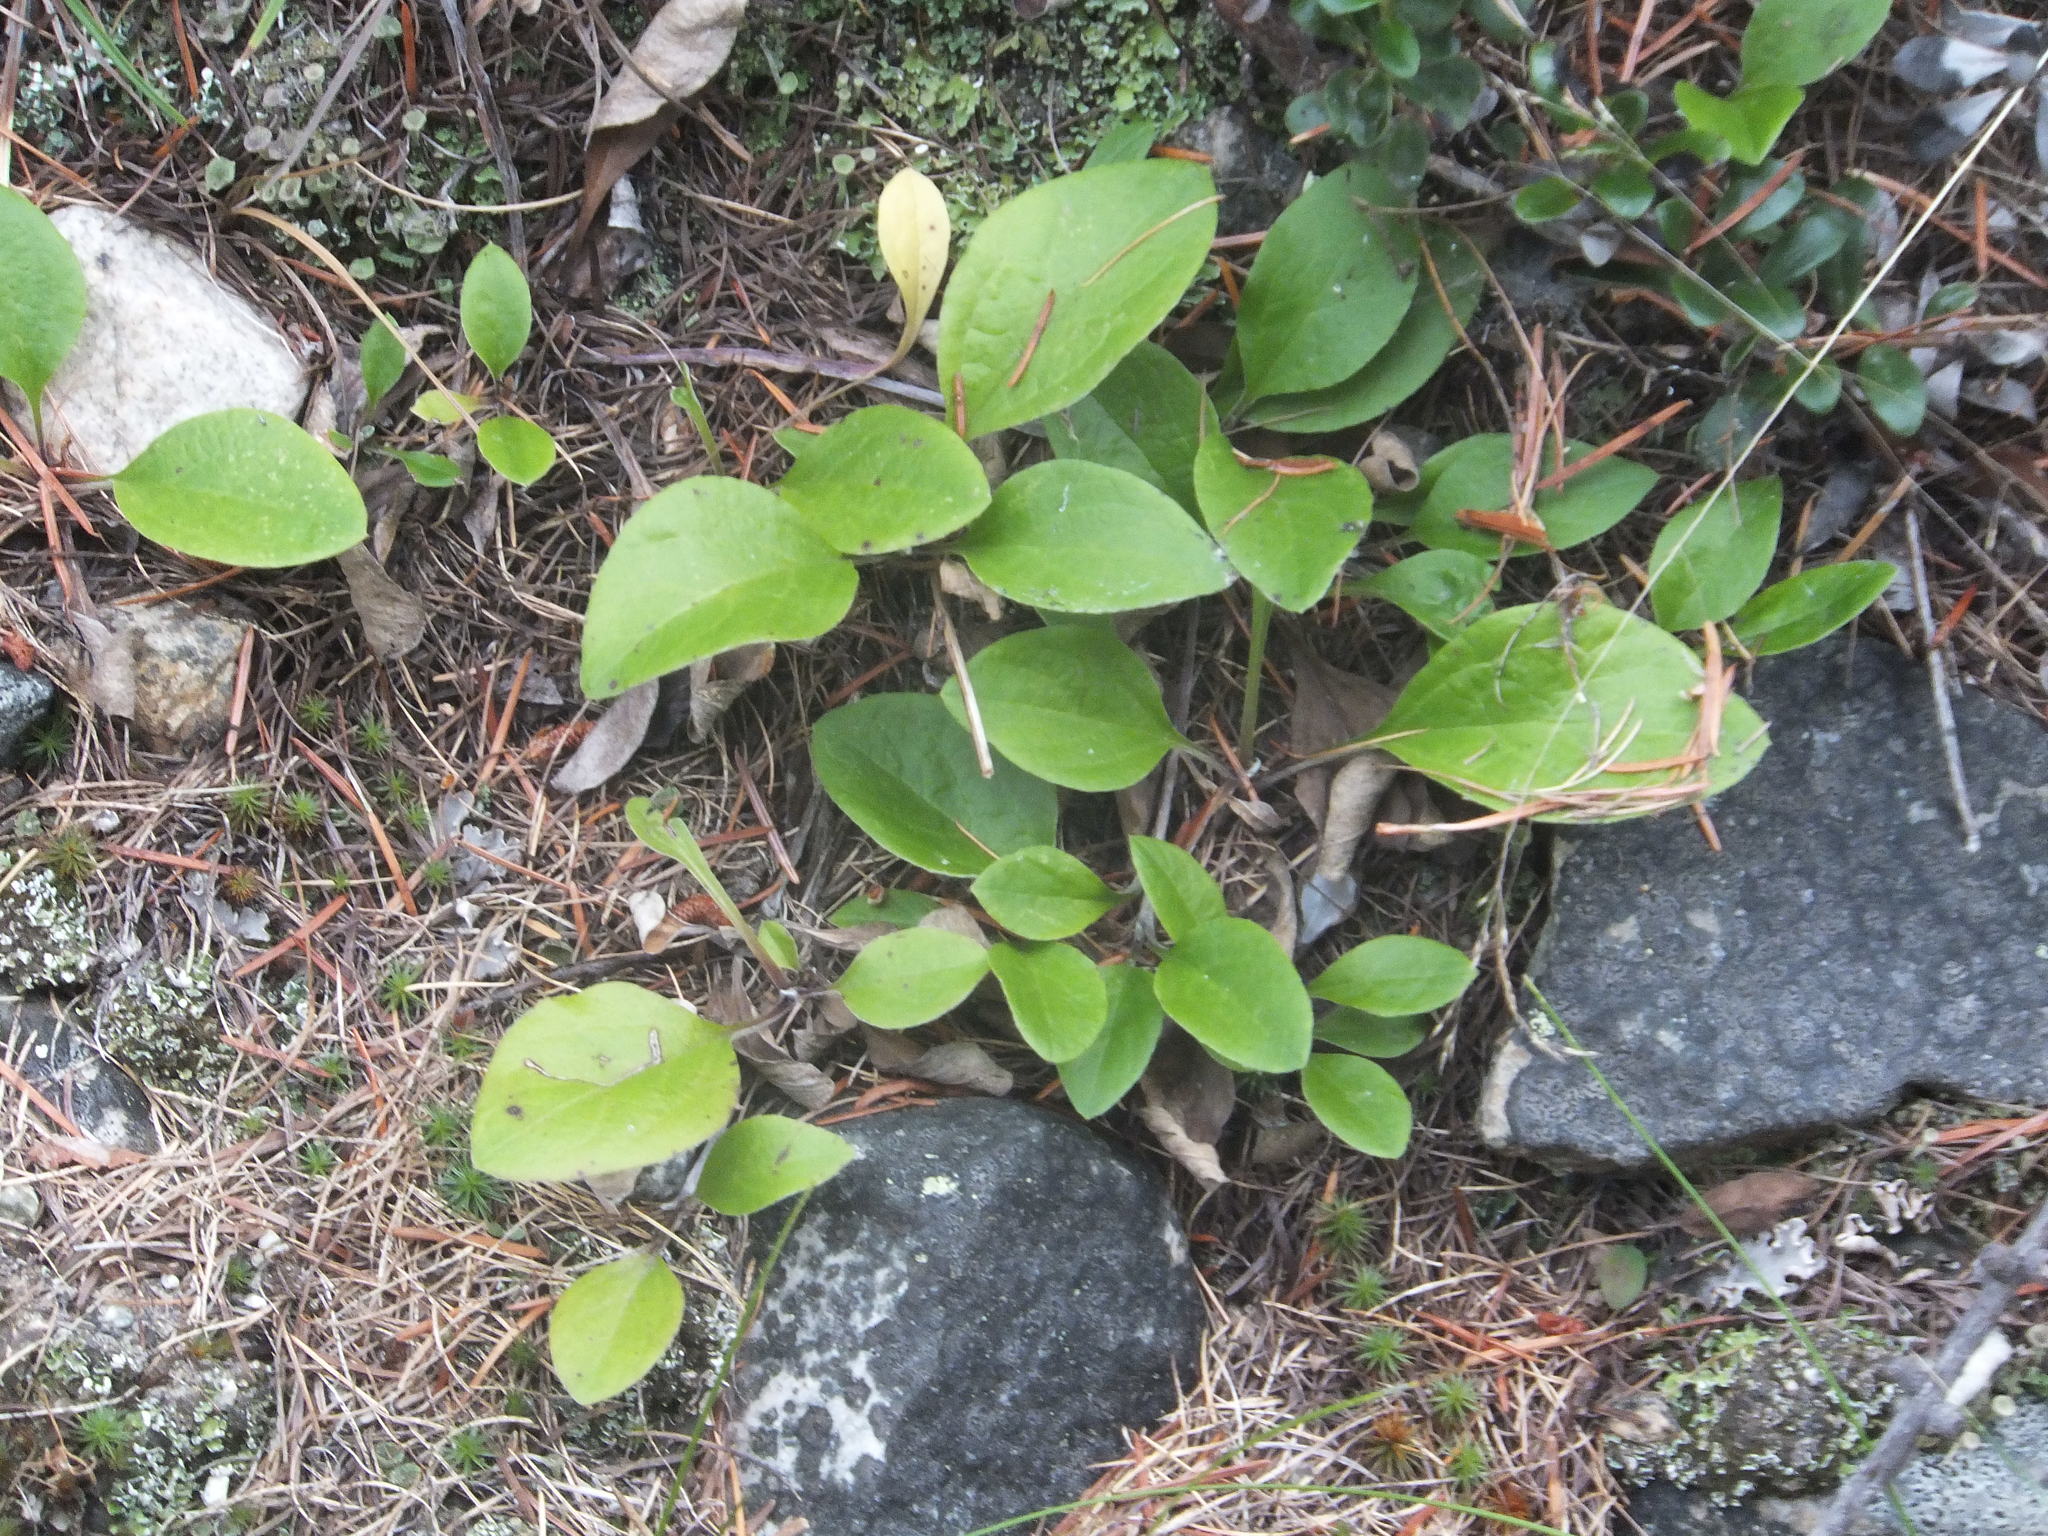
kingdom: Plantae
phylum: Tracheophyta
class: Magnoliopsida
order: Asterales
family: Asteraceae
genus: Antennaria
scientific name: Antennaria racemosa
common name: Racemose pussytoes
